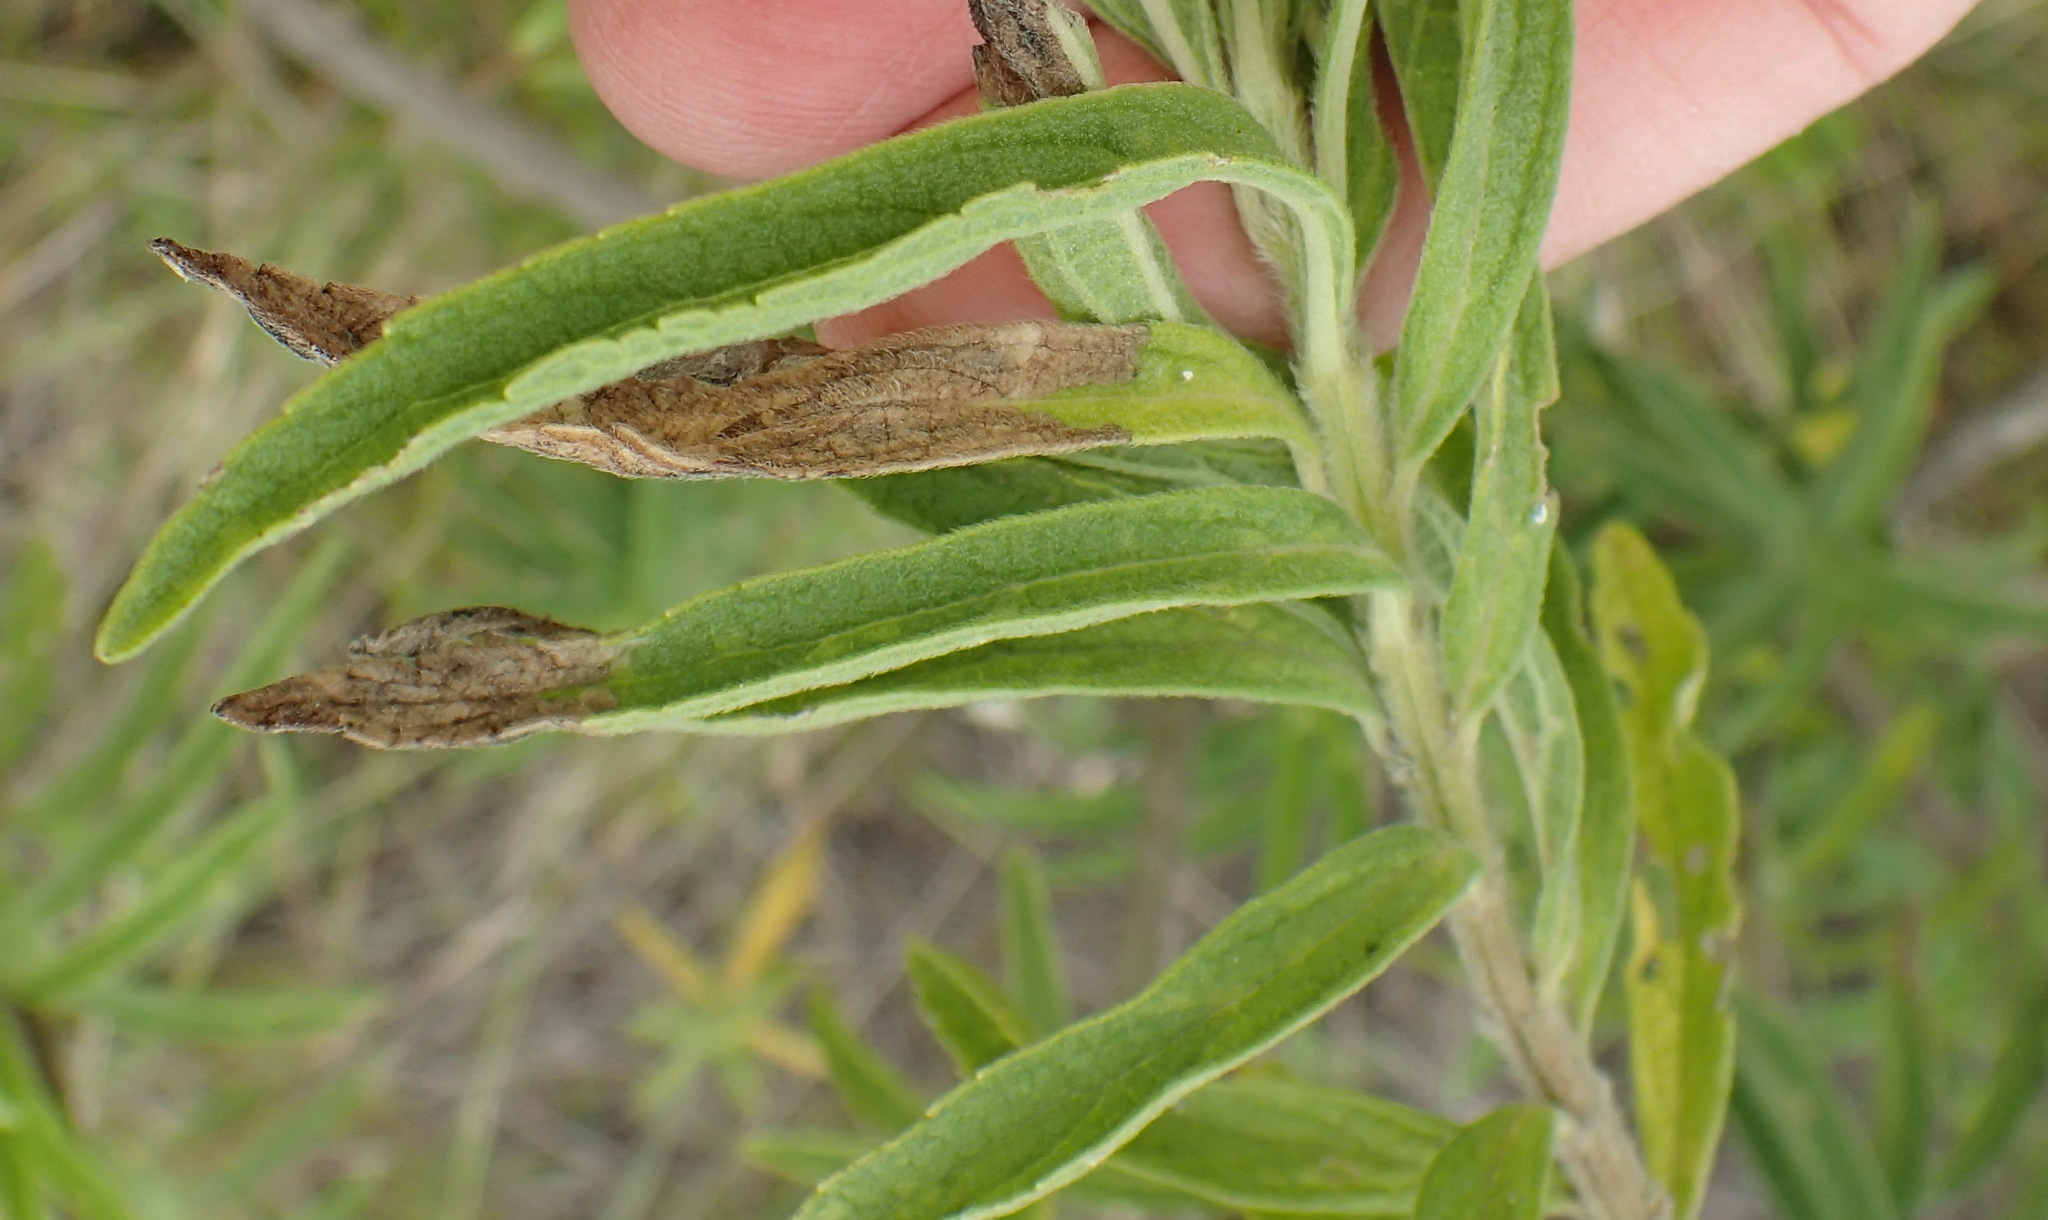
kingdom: Plantae
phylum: Tracheophyta
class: Magnoliopsida
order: Lamiales
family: Lamiaceae
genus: Leonotis
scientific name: Leonotis leonurus
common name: Lion's ear
